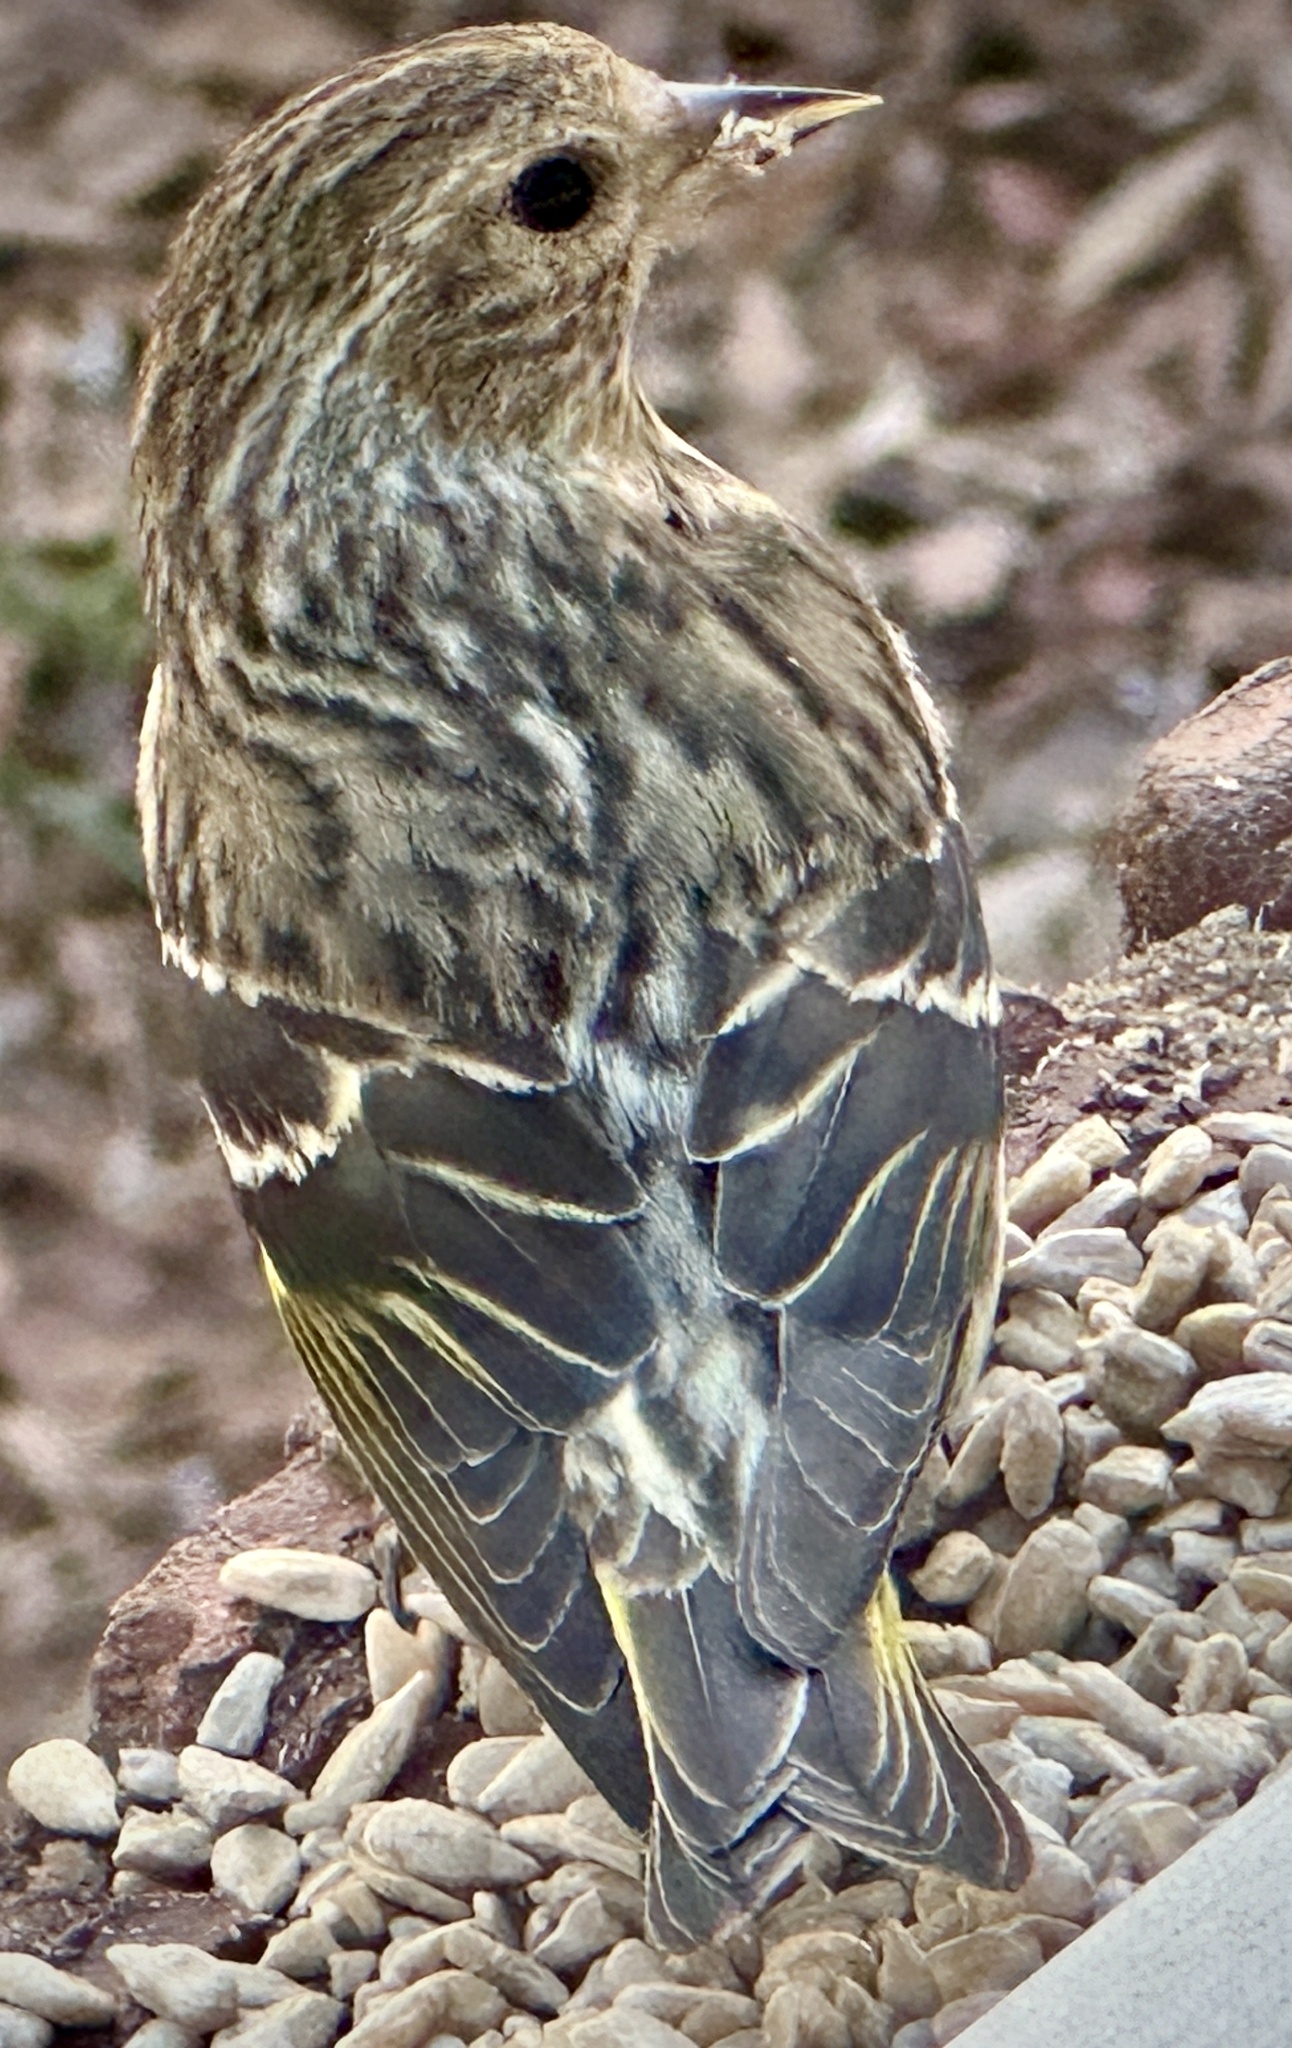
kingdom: Animalia
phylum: Chordata
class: Aves
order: Passeriformes
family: Fringillidae
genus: Spinus
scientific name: Spinus pinus
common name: Pine siskin
